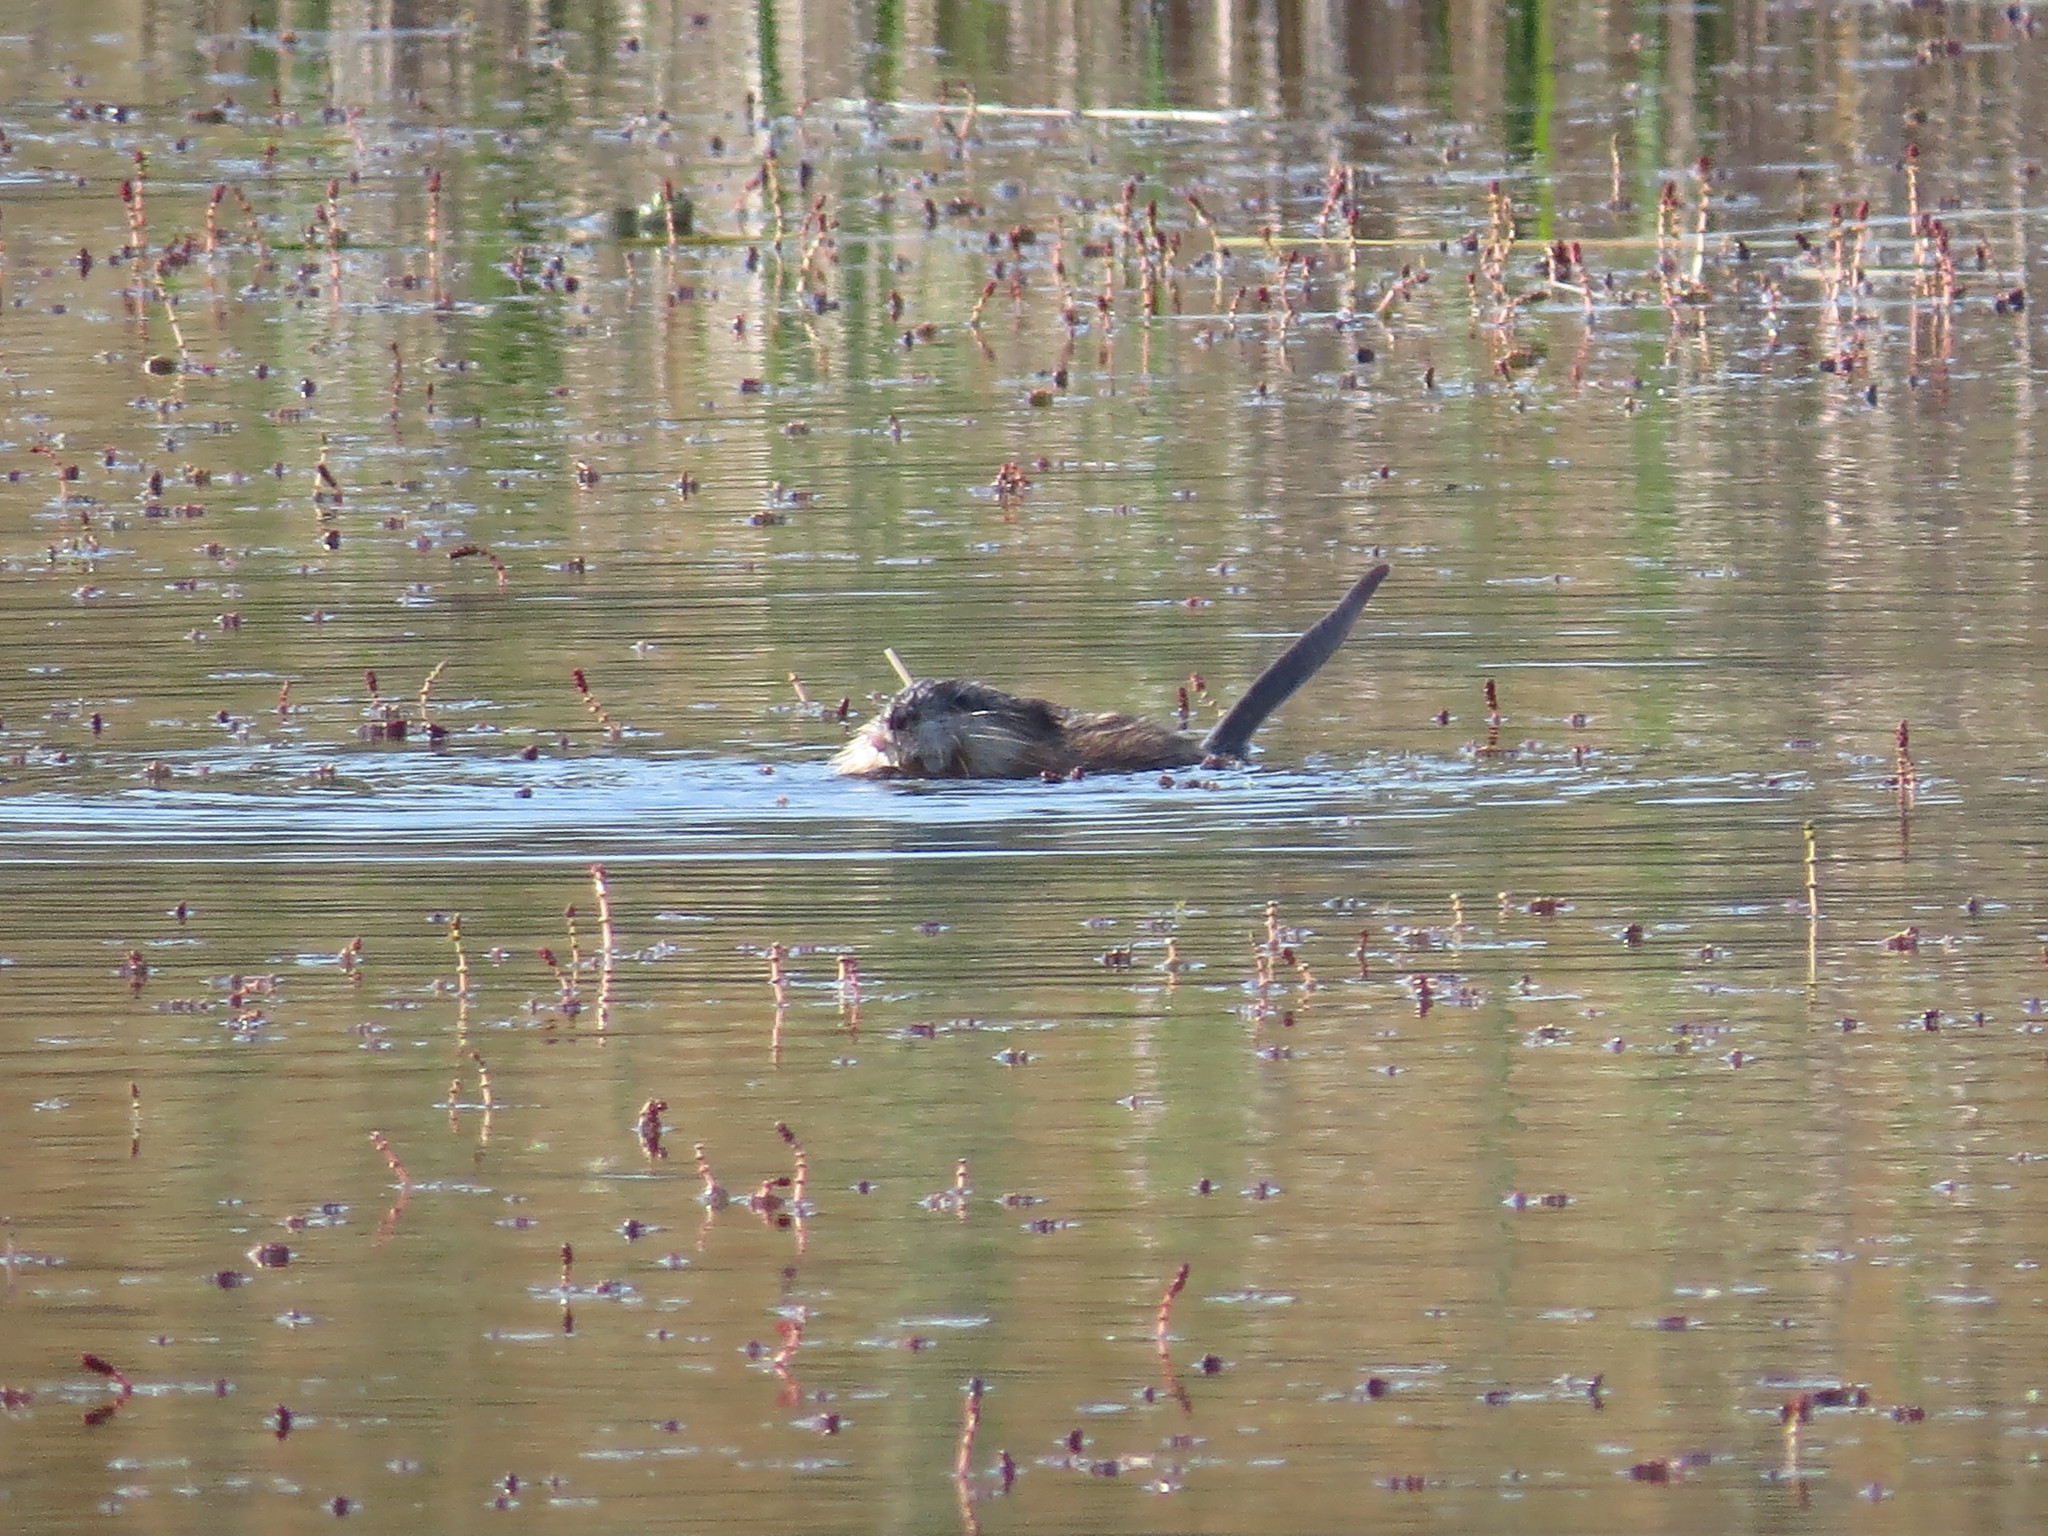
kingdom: Animalia
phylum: Chordata
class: Mammalia
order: Rodentia
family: Cricetidae
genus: Ondatra
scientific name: Ondatra zibethicus
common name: Muskrat
